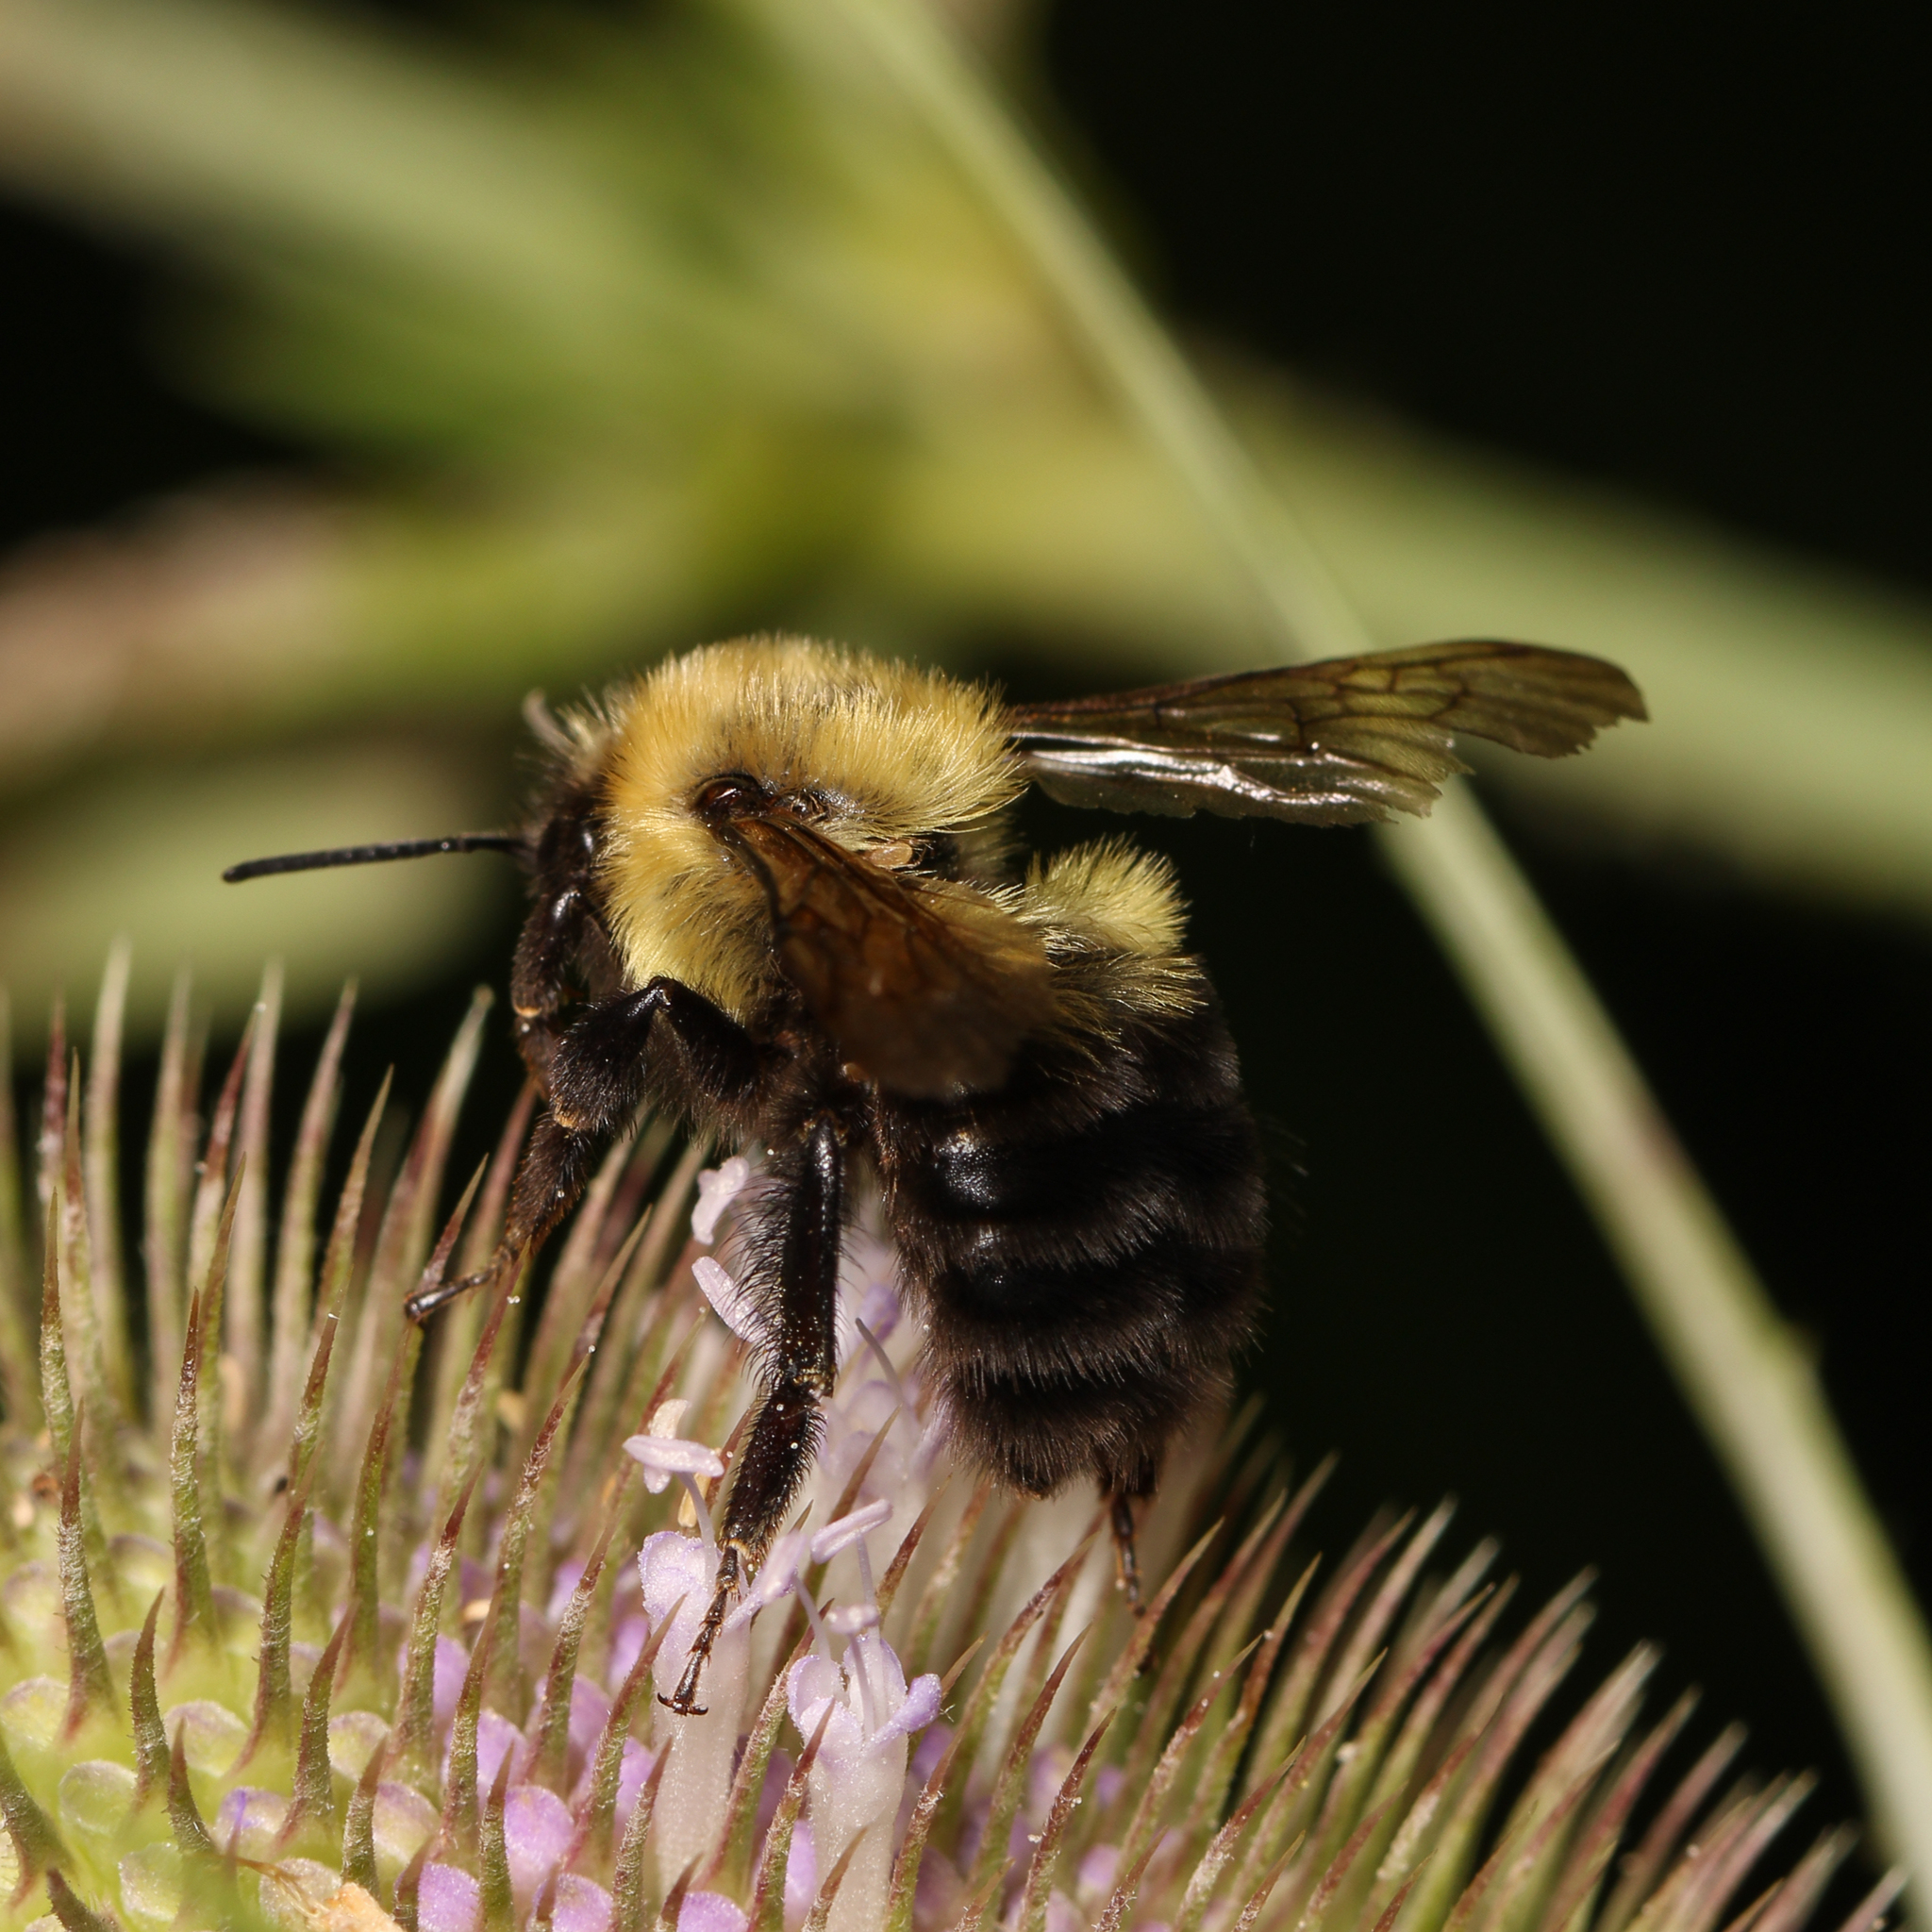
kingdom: Animalia
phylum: Arthropoda
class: Insecta
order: Hymenoptera
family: Apidae
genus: Bombus
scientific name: Bombus bimaculatus
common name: Two-spotted bumble bee
